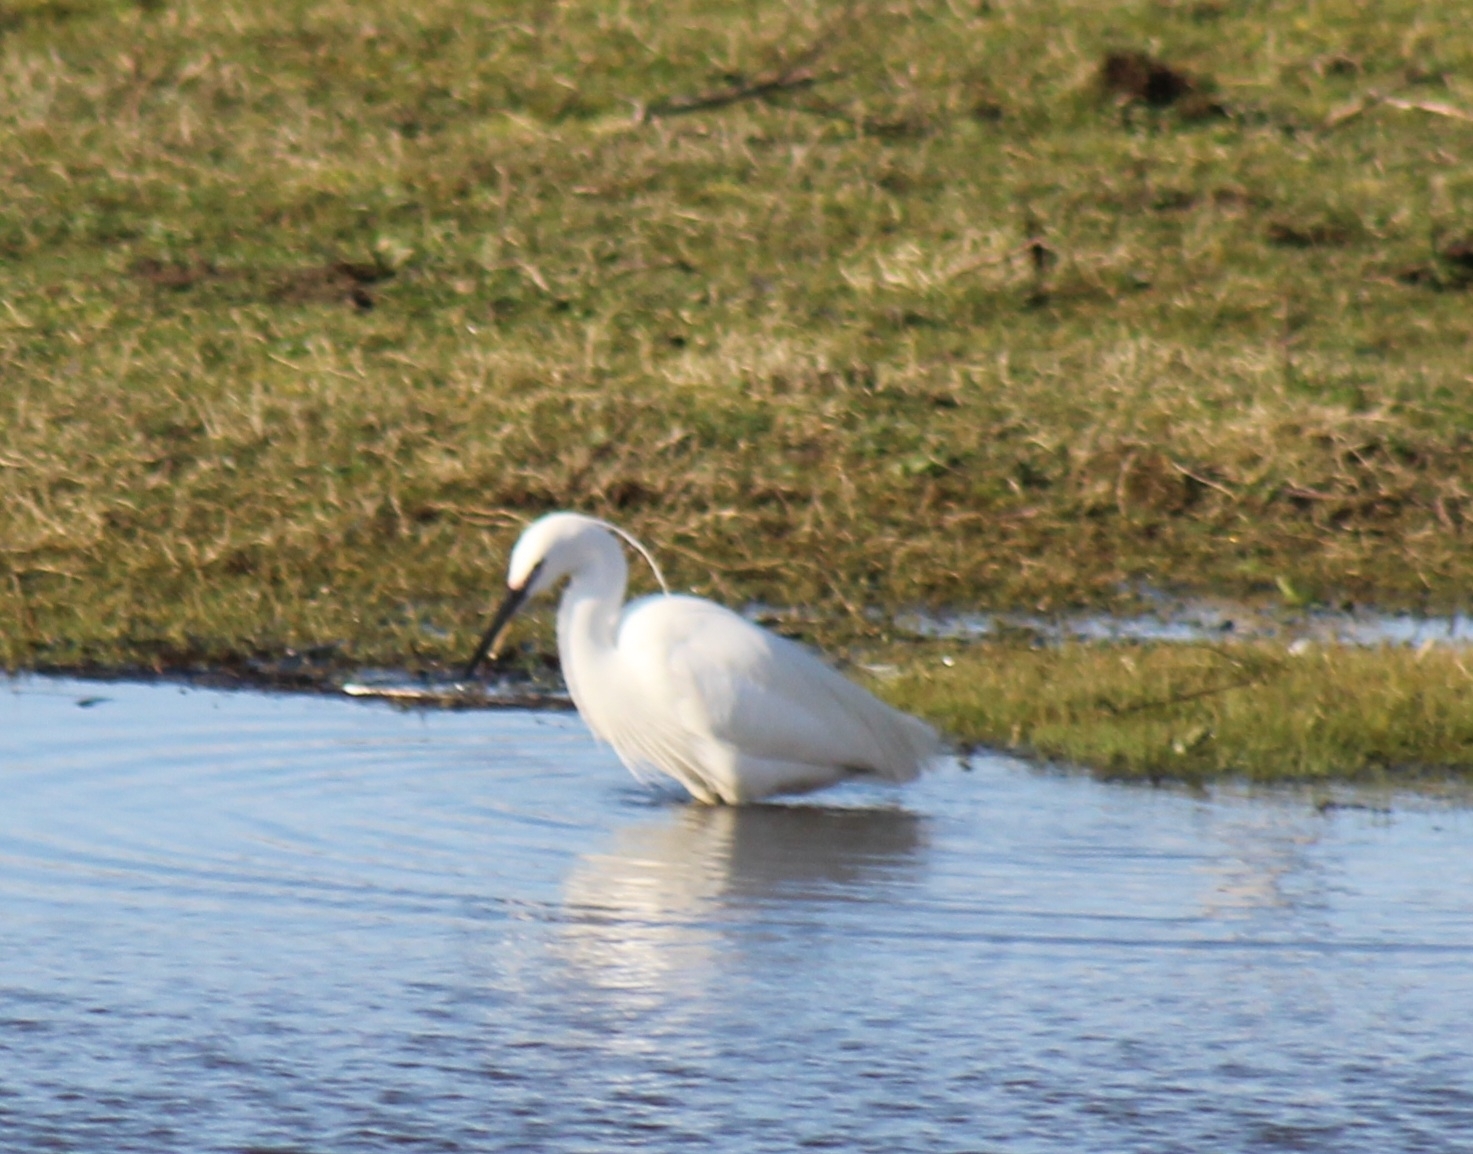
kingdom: Animalia
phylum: Chordata
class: Aves
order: Pelecaniformes
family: Ardeidae
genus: Egretta
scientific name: Egretta garzetta
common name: Little egret
